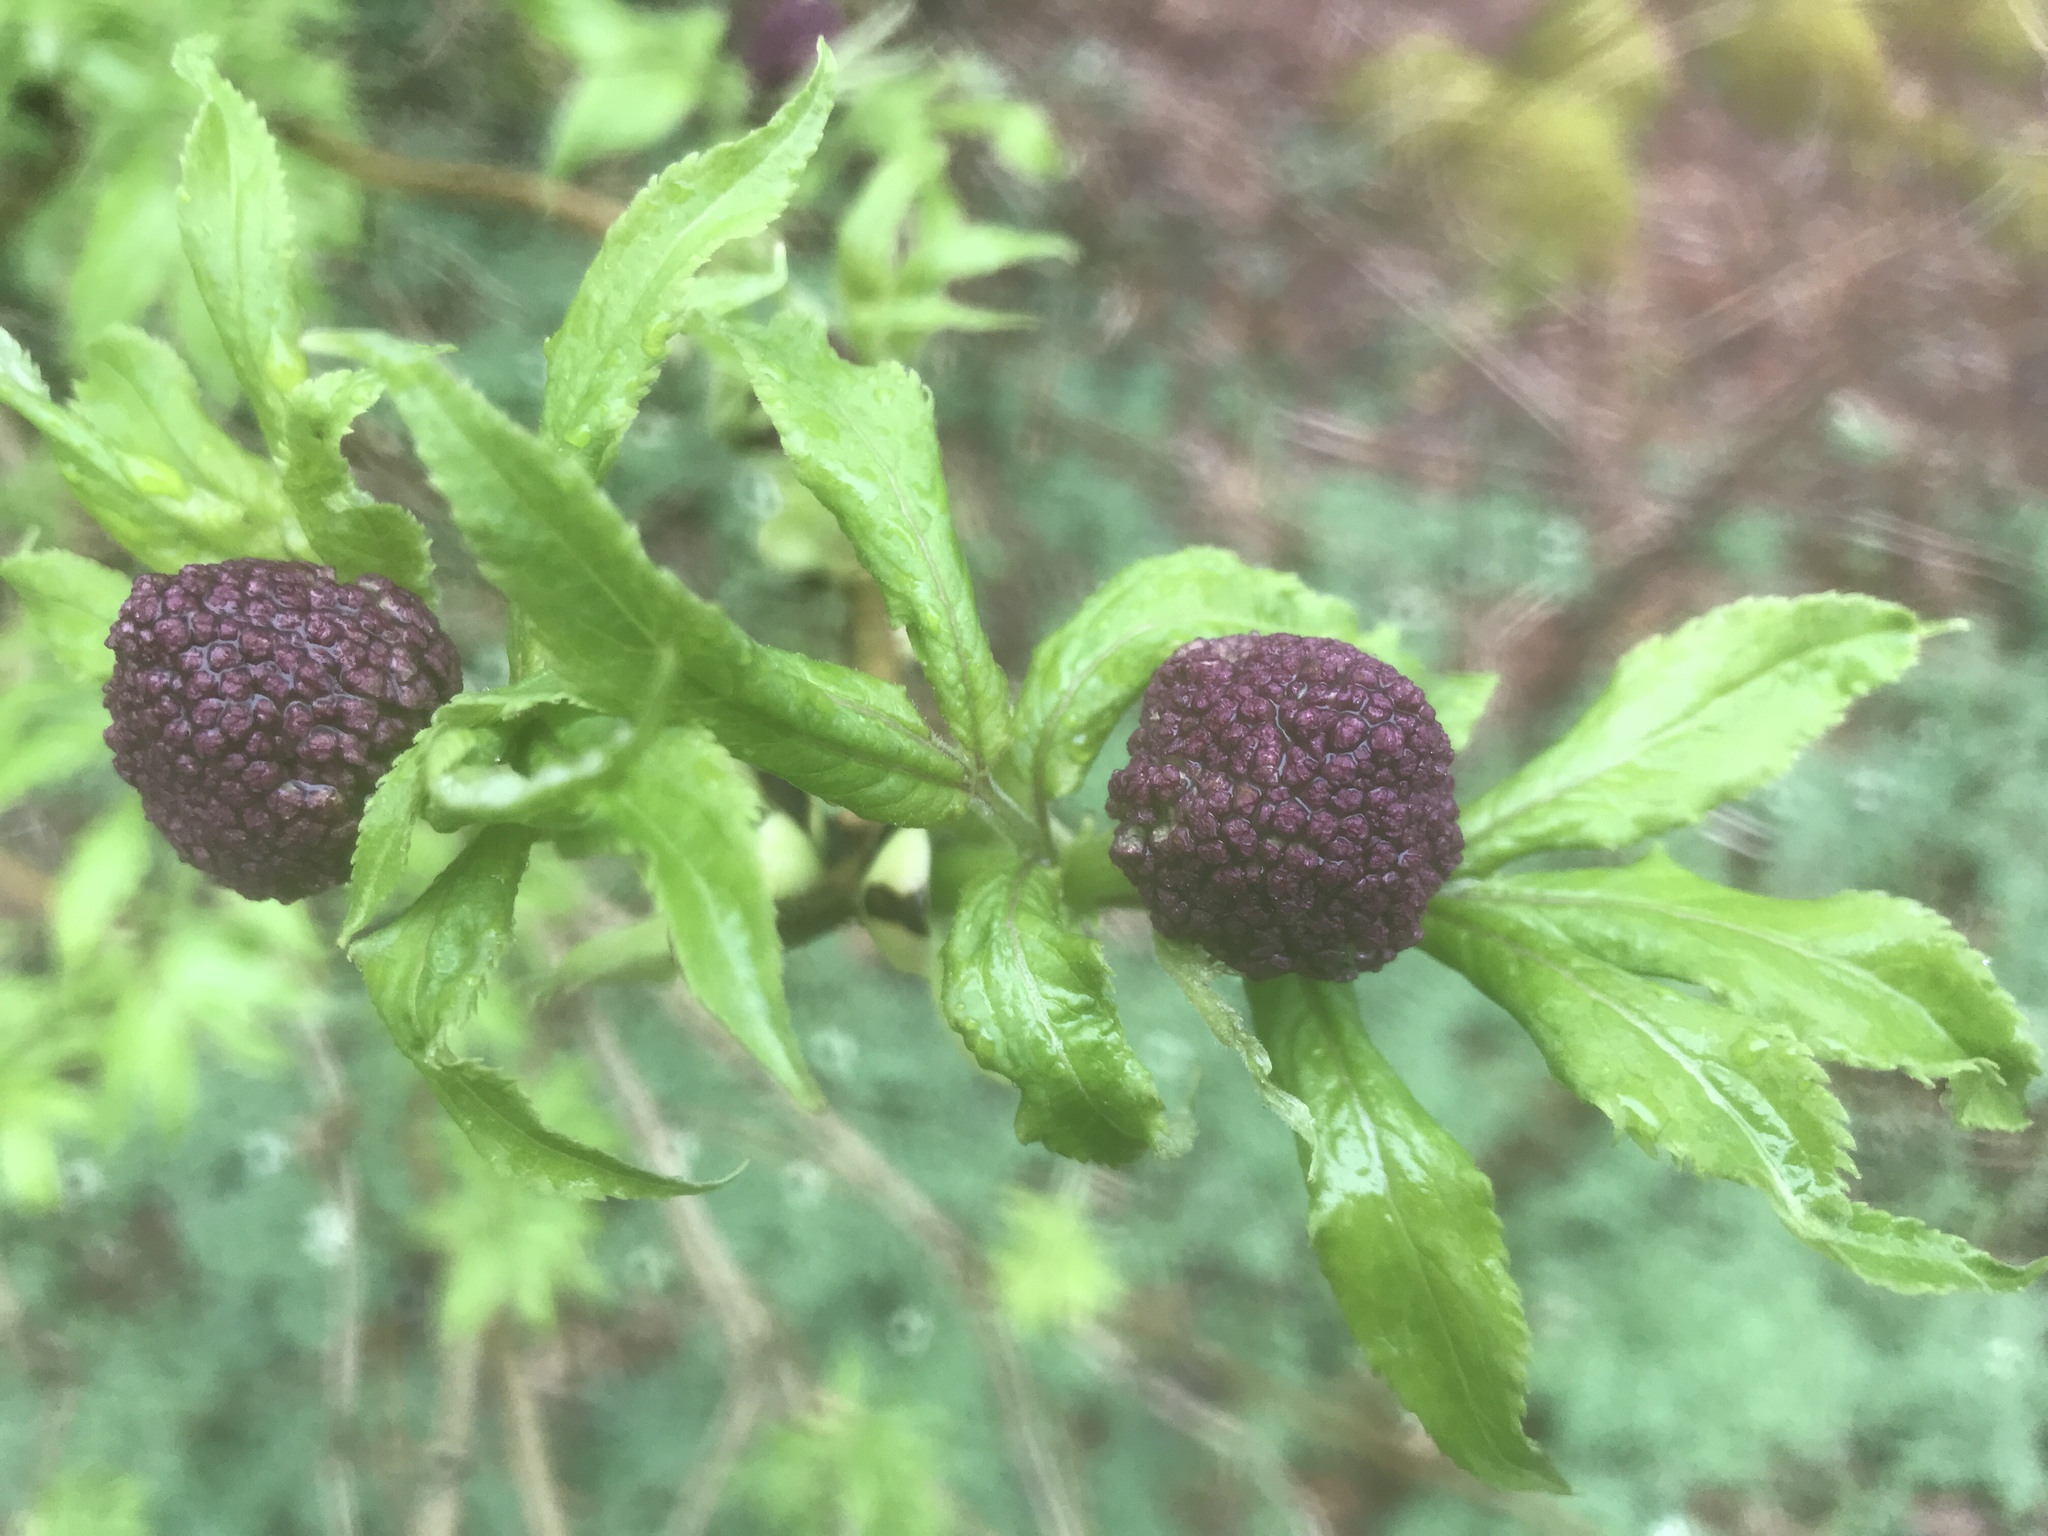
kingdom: Plantae
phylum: Tracheophyta
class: Magnoliopsida
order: Dipsacales
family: Viburnaceae
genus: Sambucus
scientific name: Sambucus racemosa
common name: Red-berried elder
